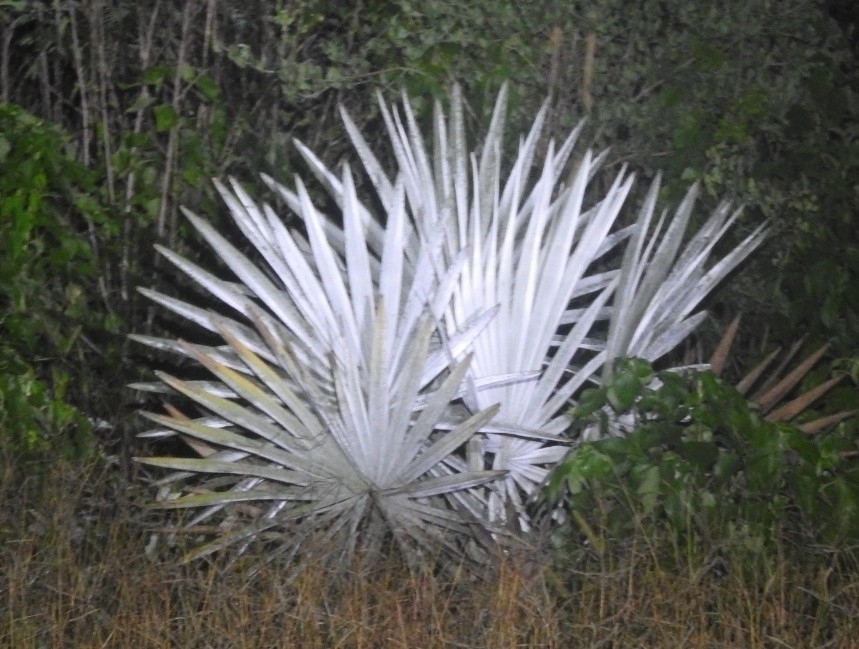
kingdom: Plantae
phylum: Tracheophyta
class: Liliopsida
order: Arecales
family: Arecaceae
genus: Bismarckia
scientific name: Bismarckia nobilis
